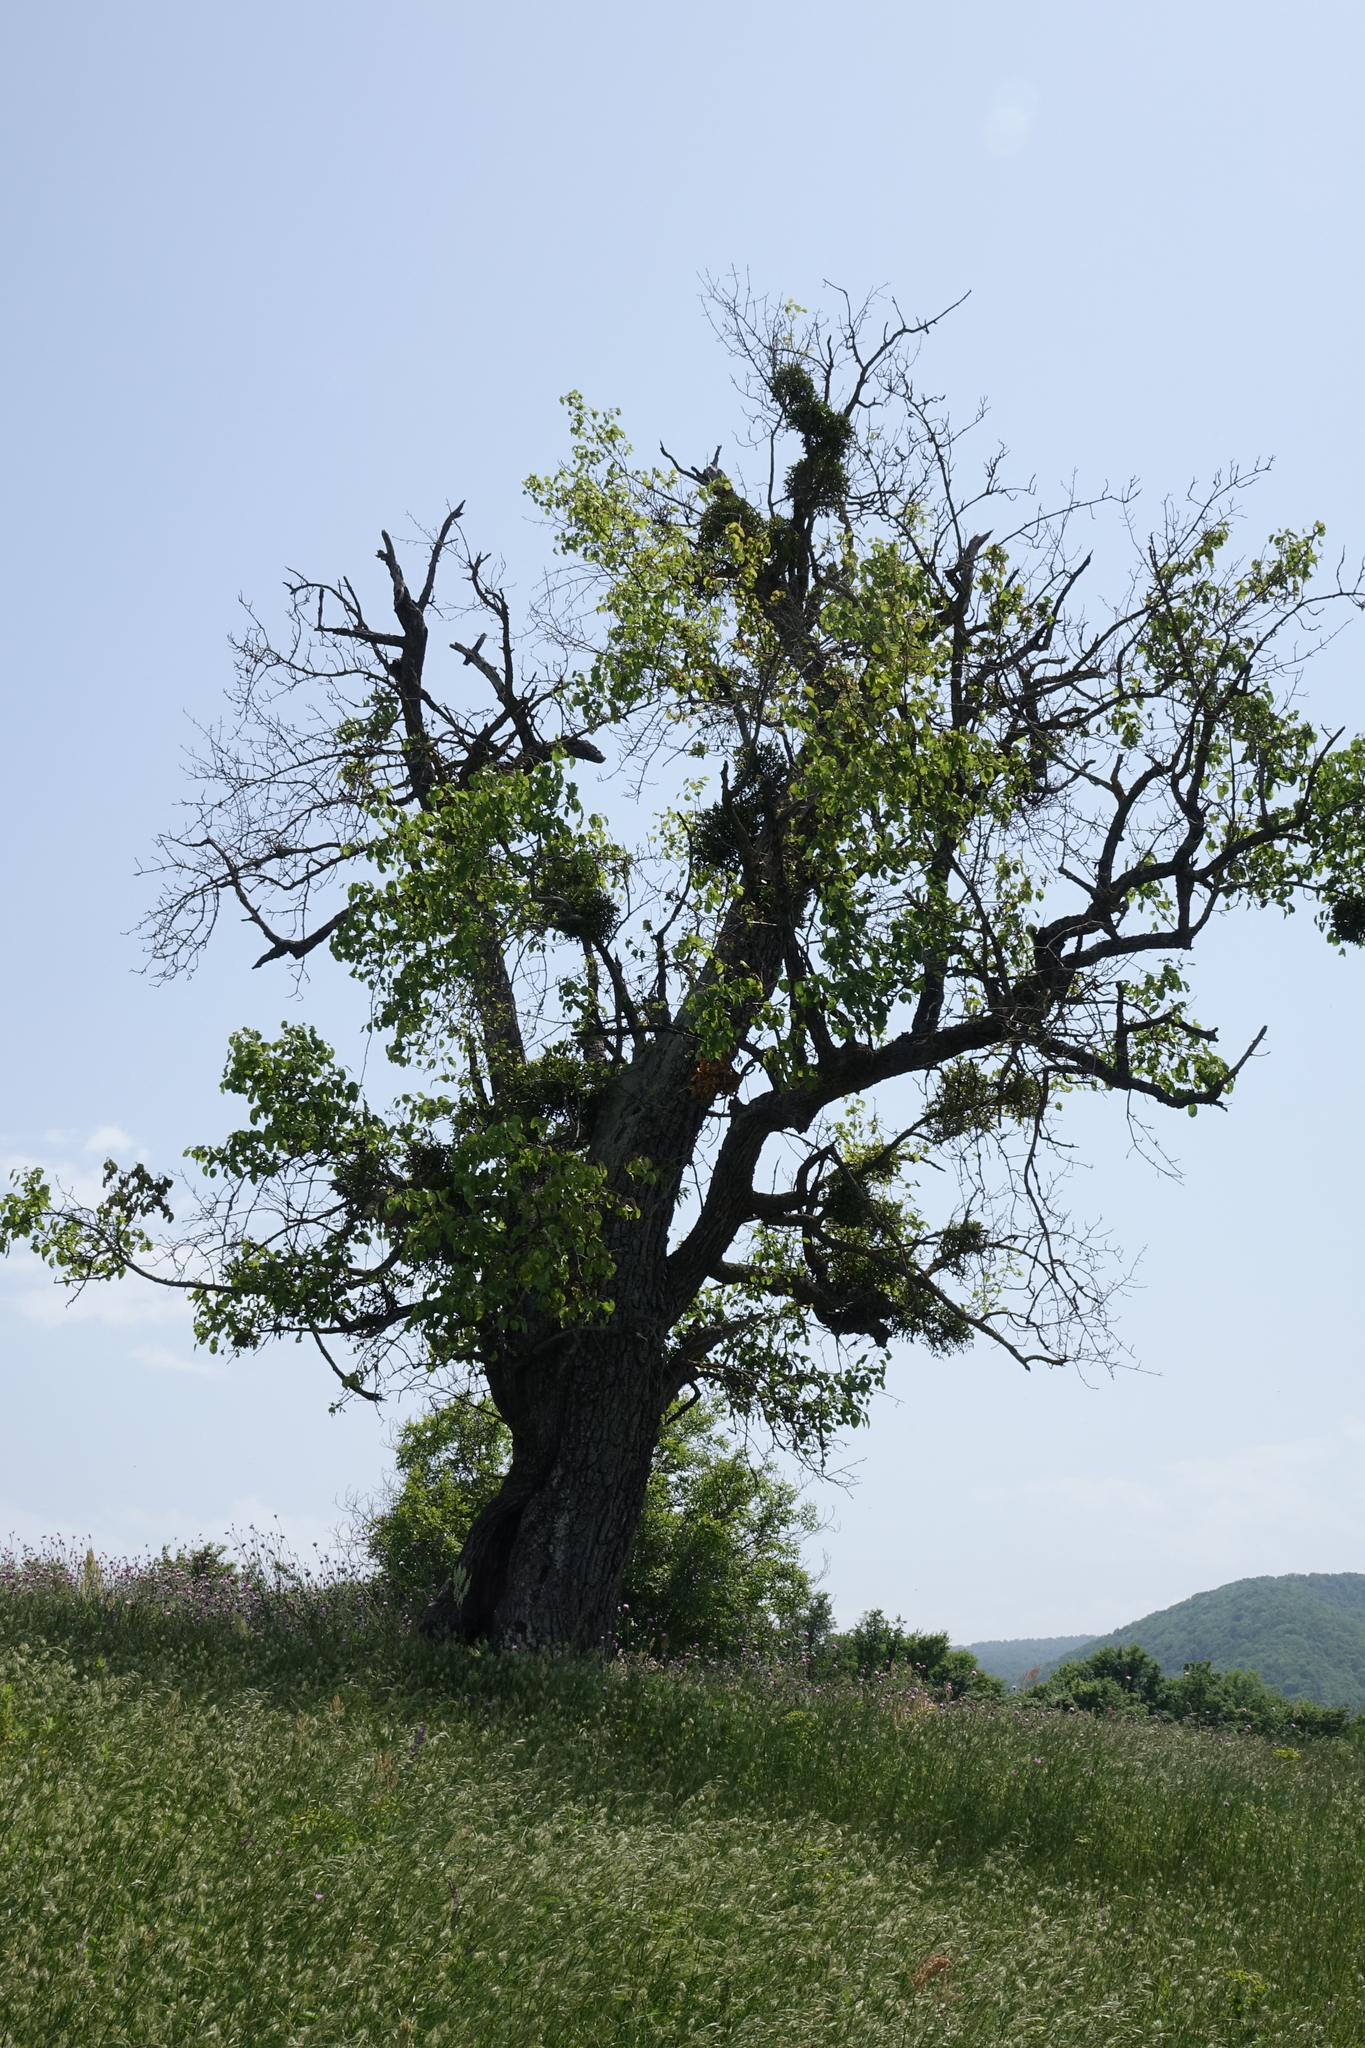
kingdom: Plantae
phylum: Tracheophyta
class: Magnoliopsida
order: Santalales
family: Viscaceae
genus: Viscum
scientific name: Viscum album
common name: Mistletoe
